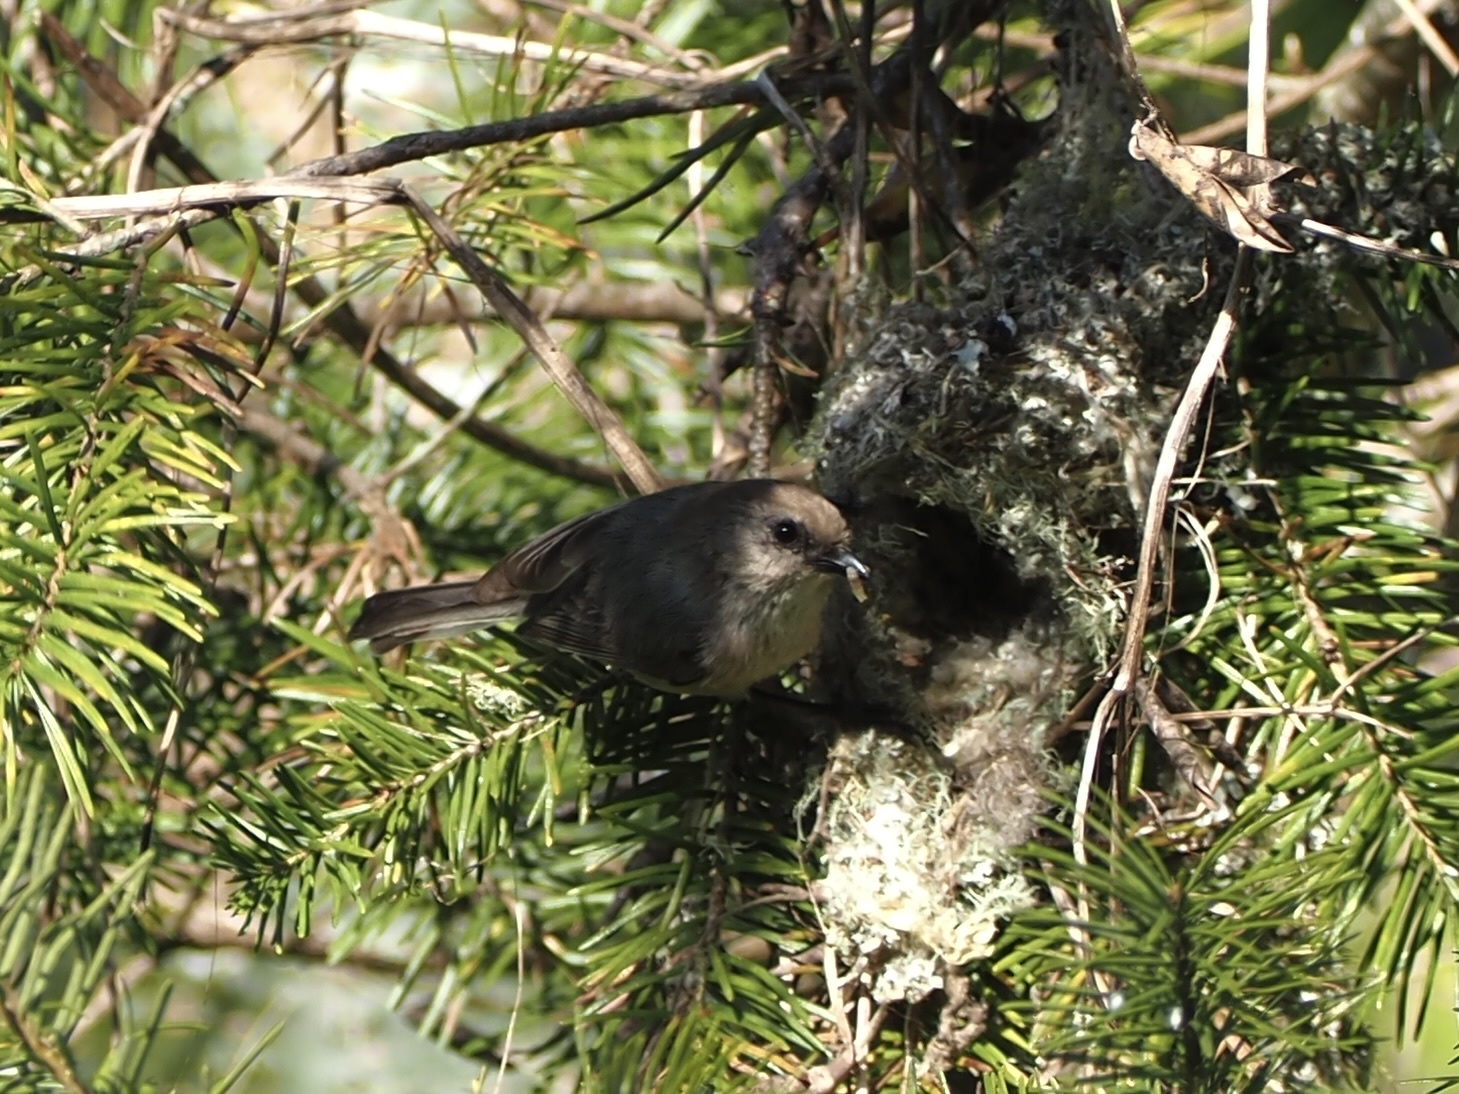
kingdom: Animalia
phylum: Chordata
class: Aves
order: Passeriformes
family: Aegithalidae
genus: Psaltriparus
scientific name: Psaltriparus minimus
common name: American bushtit
